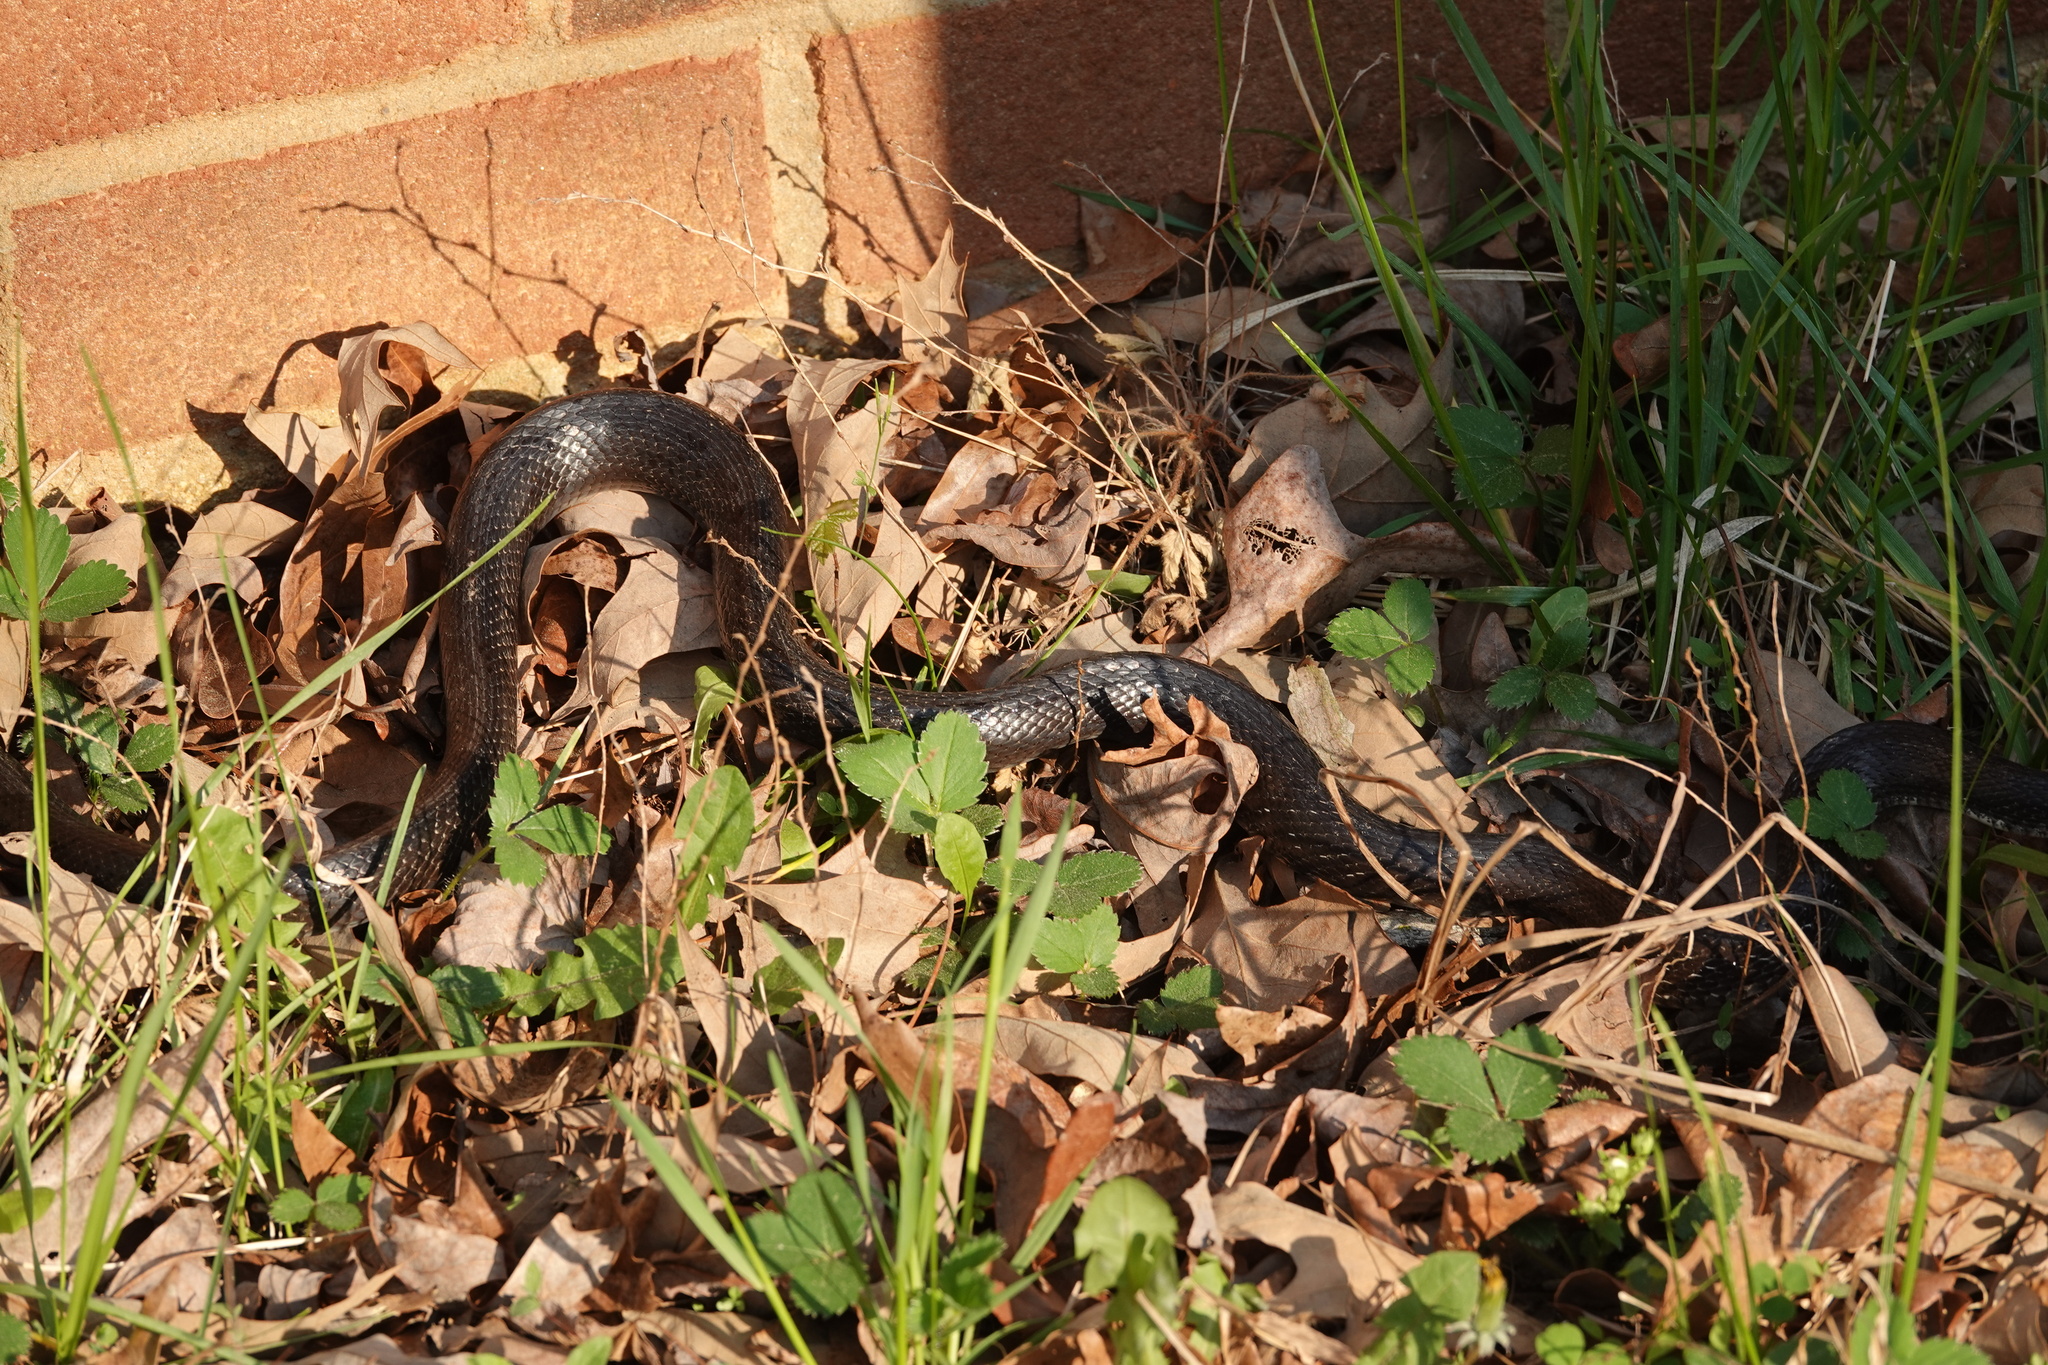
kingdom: Animalia
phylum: Chordata
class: Squamata
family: Colubridae
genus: Pantherophis
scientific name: Pantherophis
